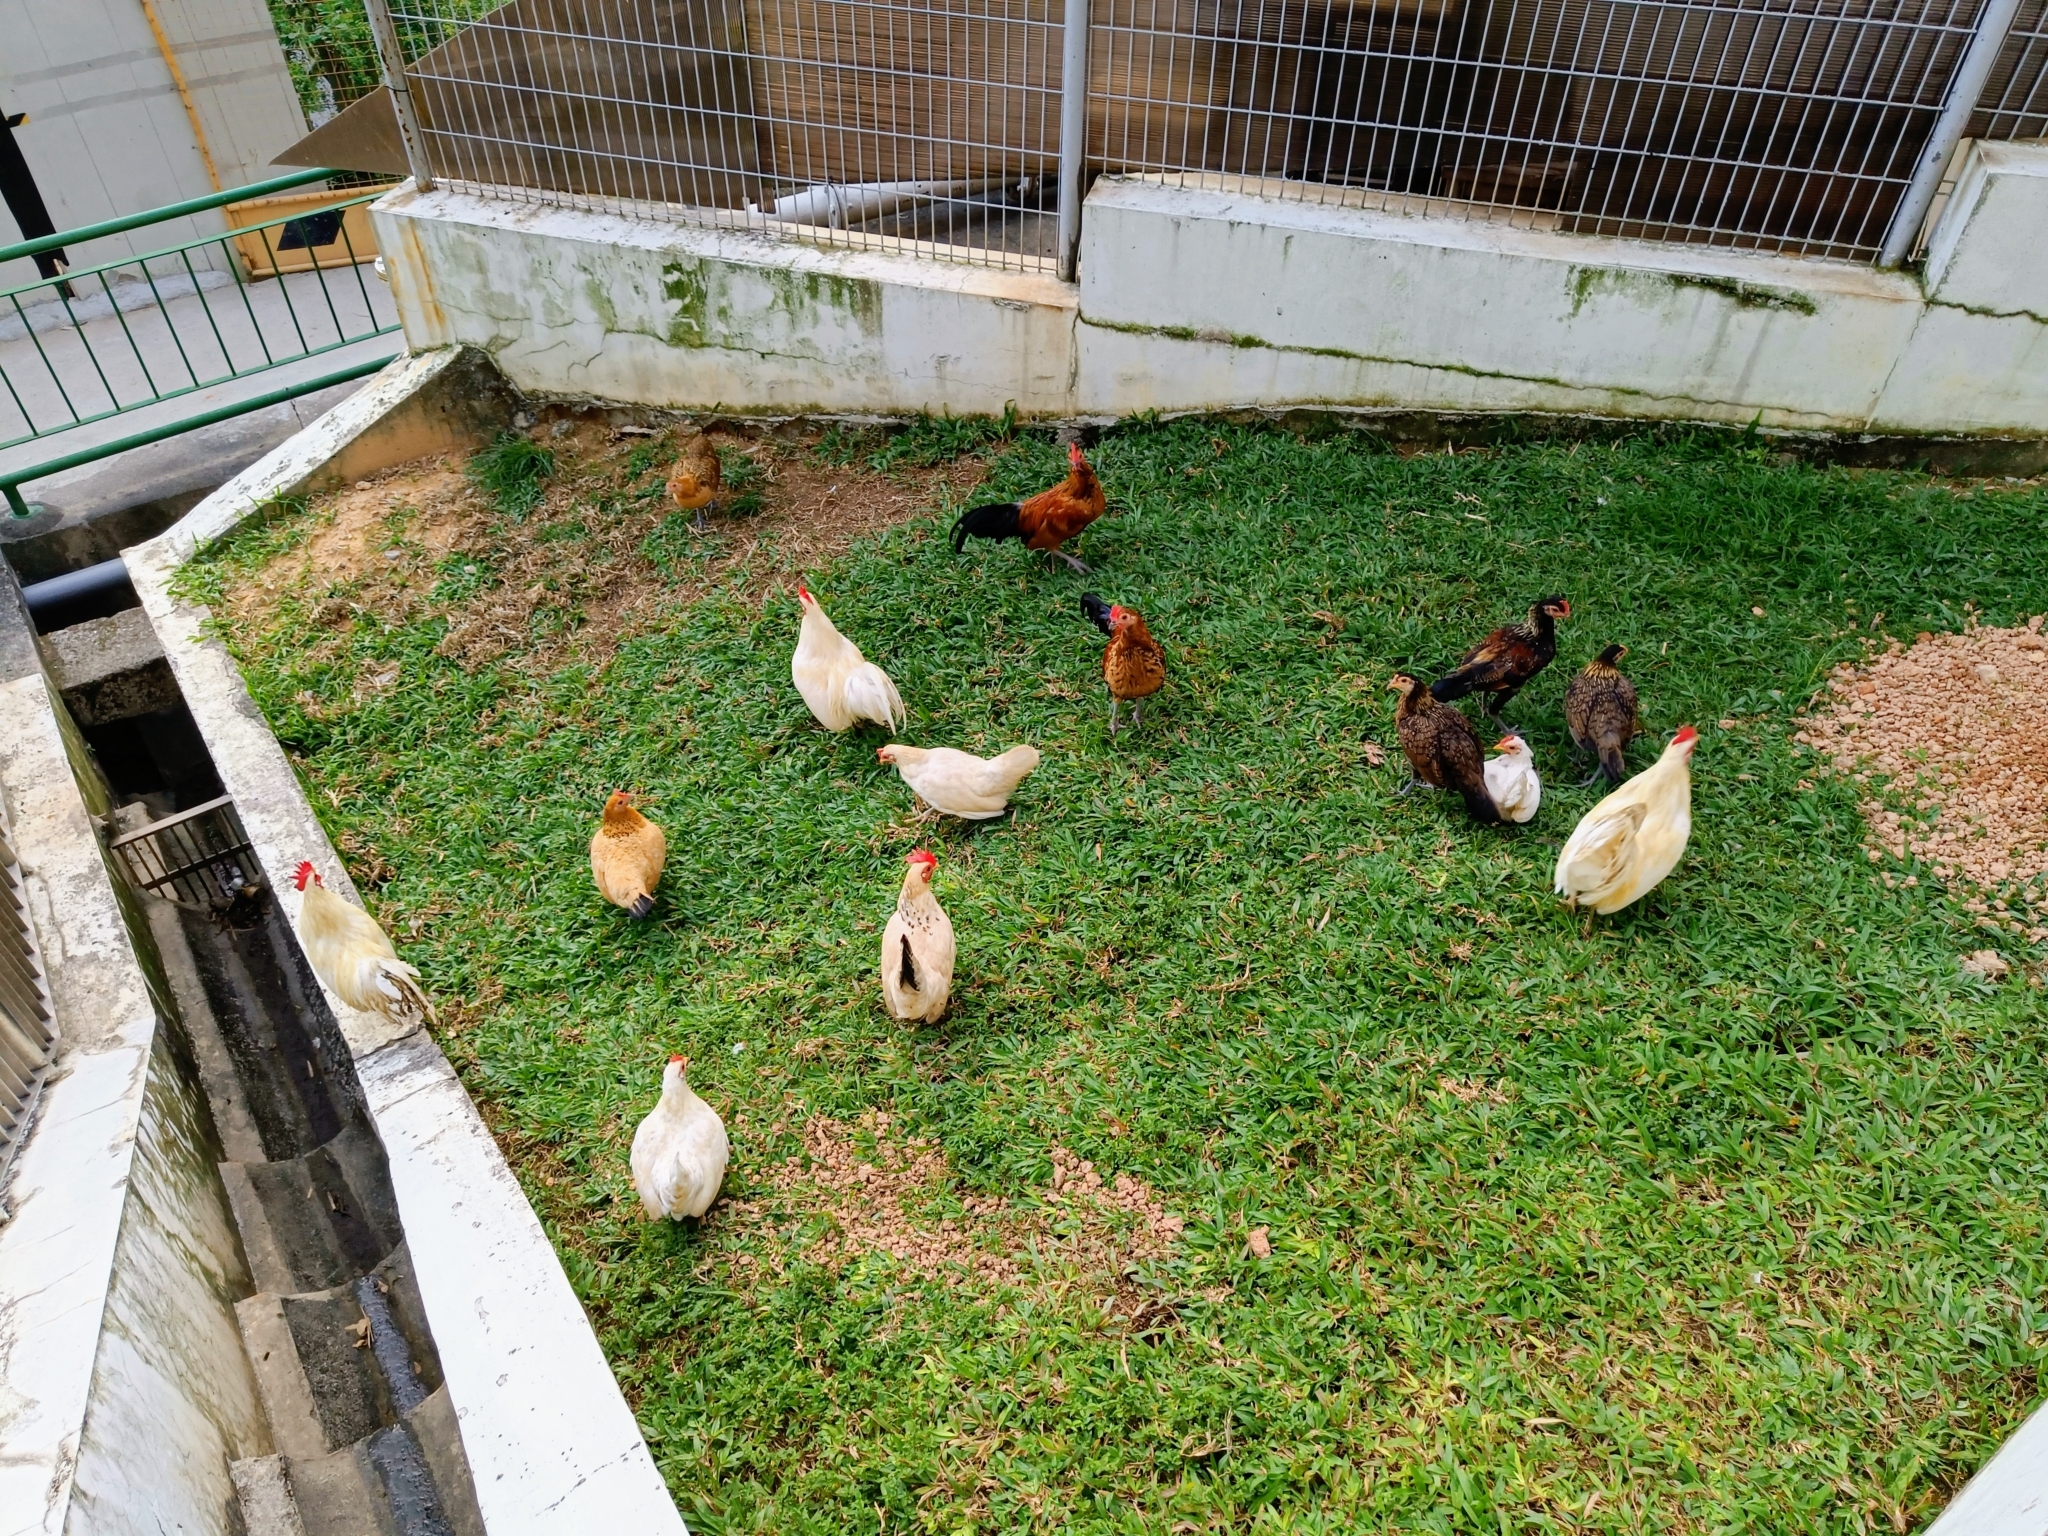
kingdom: Animalia
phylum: Chordata
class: Aves
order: Galliformes
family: Phasianidae
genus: Gallus
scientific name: Gallus gallus
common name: Red junglefowl
